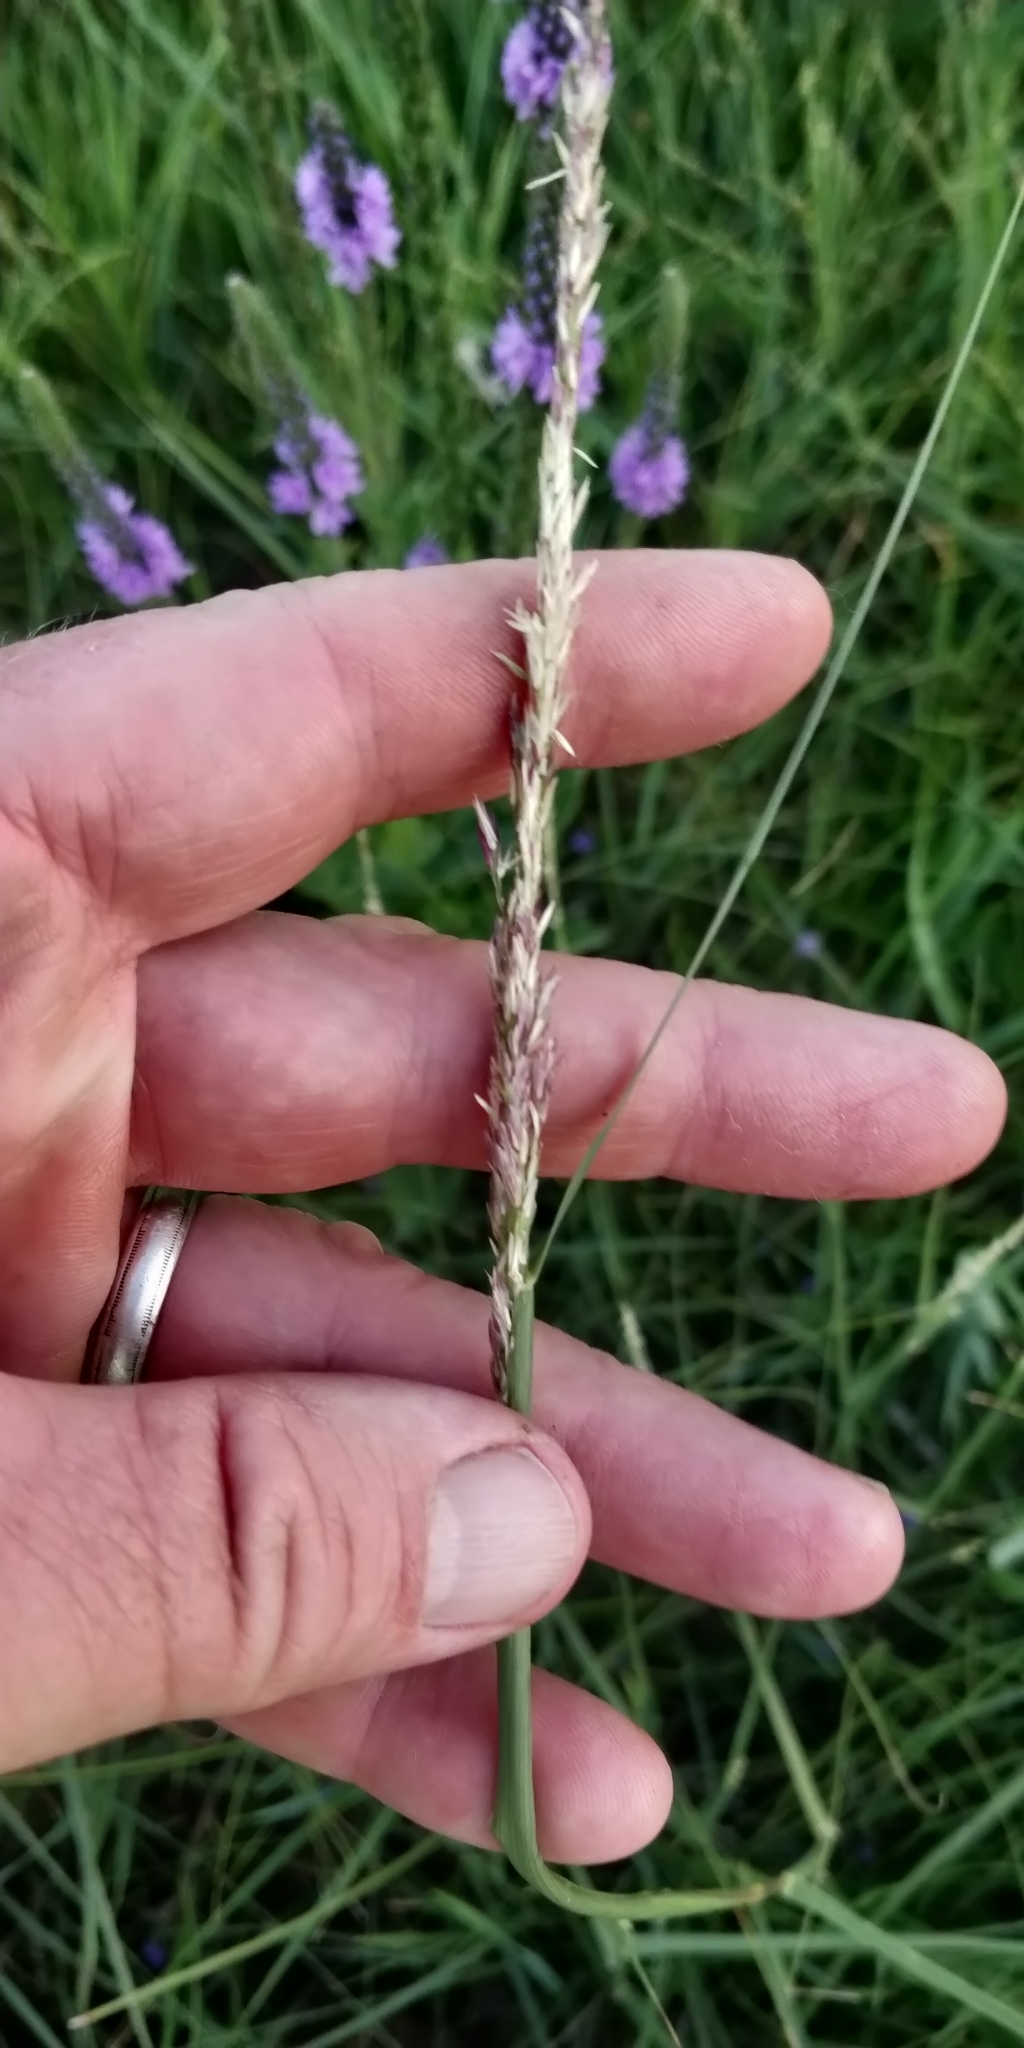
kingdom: Plantae
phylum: Tracheophyta
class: Liliopsida
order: Poales
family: Poaceae
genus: Sporobolus
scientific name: Sporobolus compositus
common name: Rough dropseed
